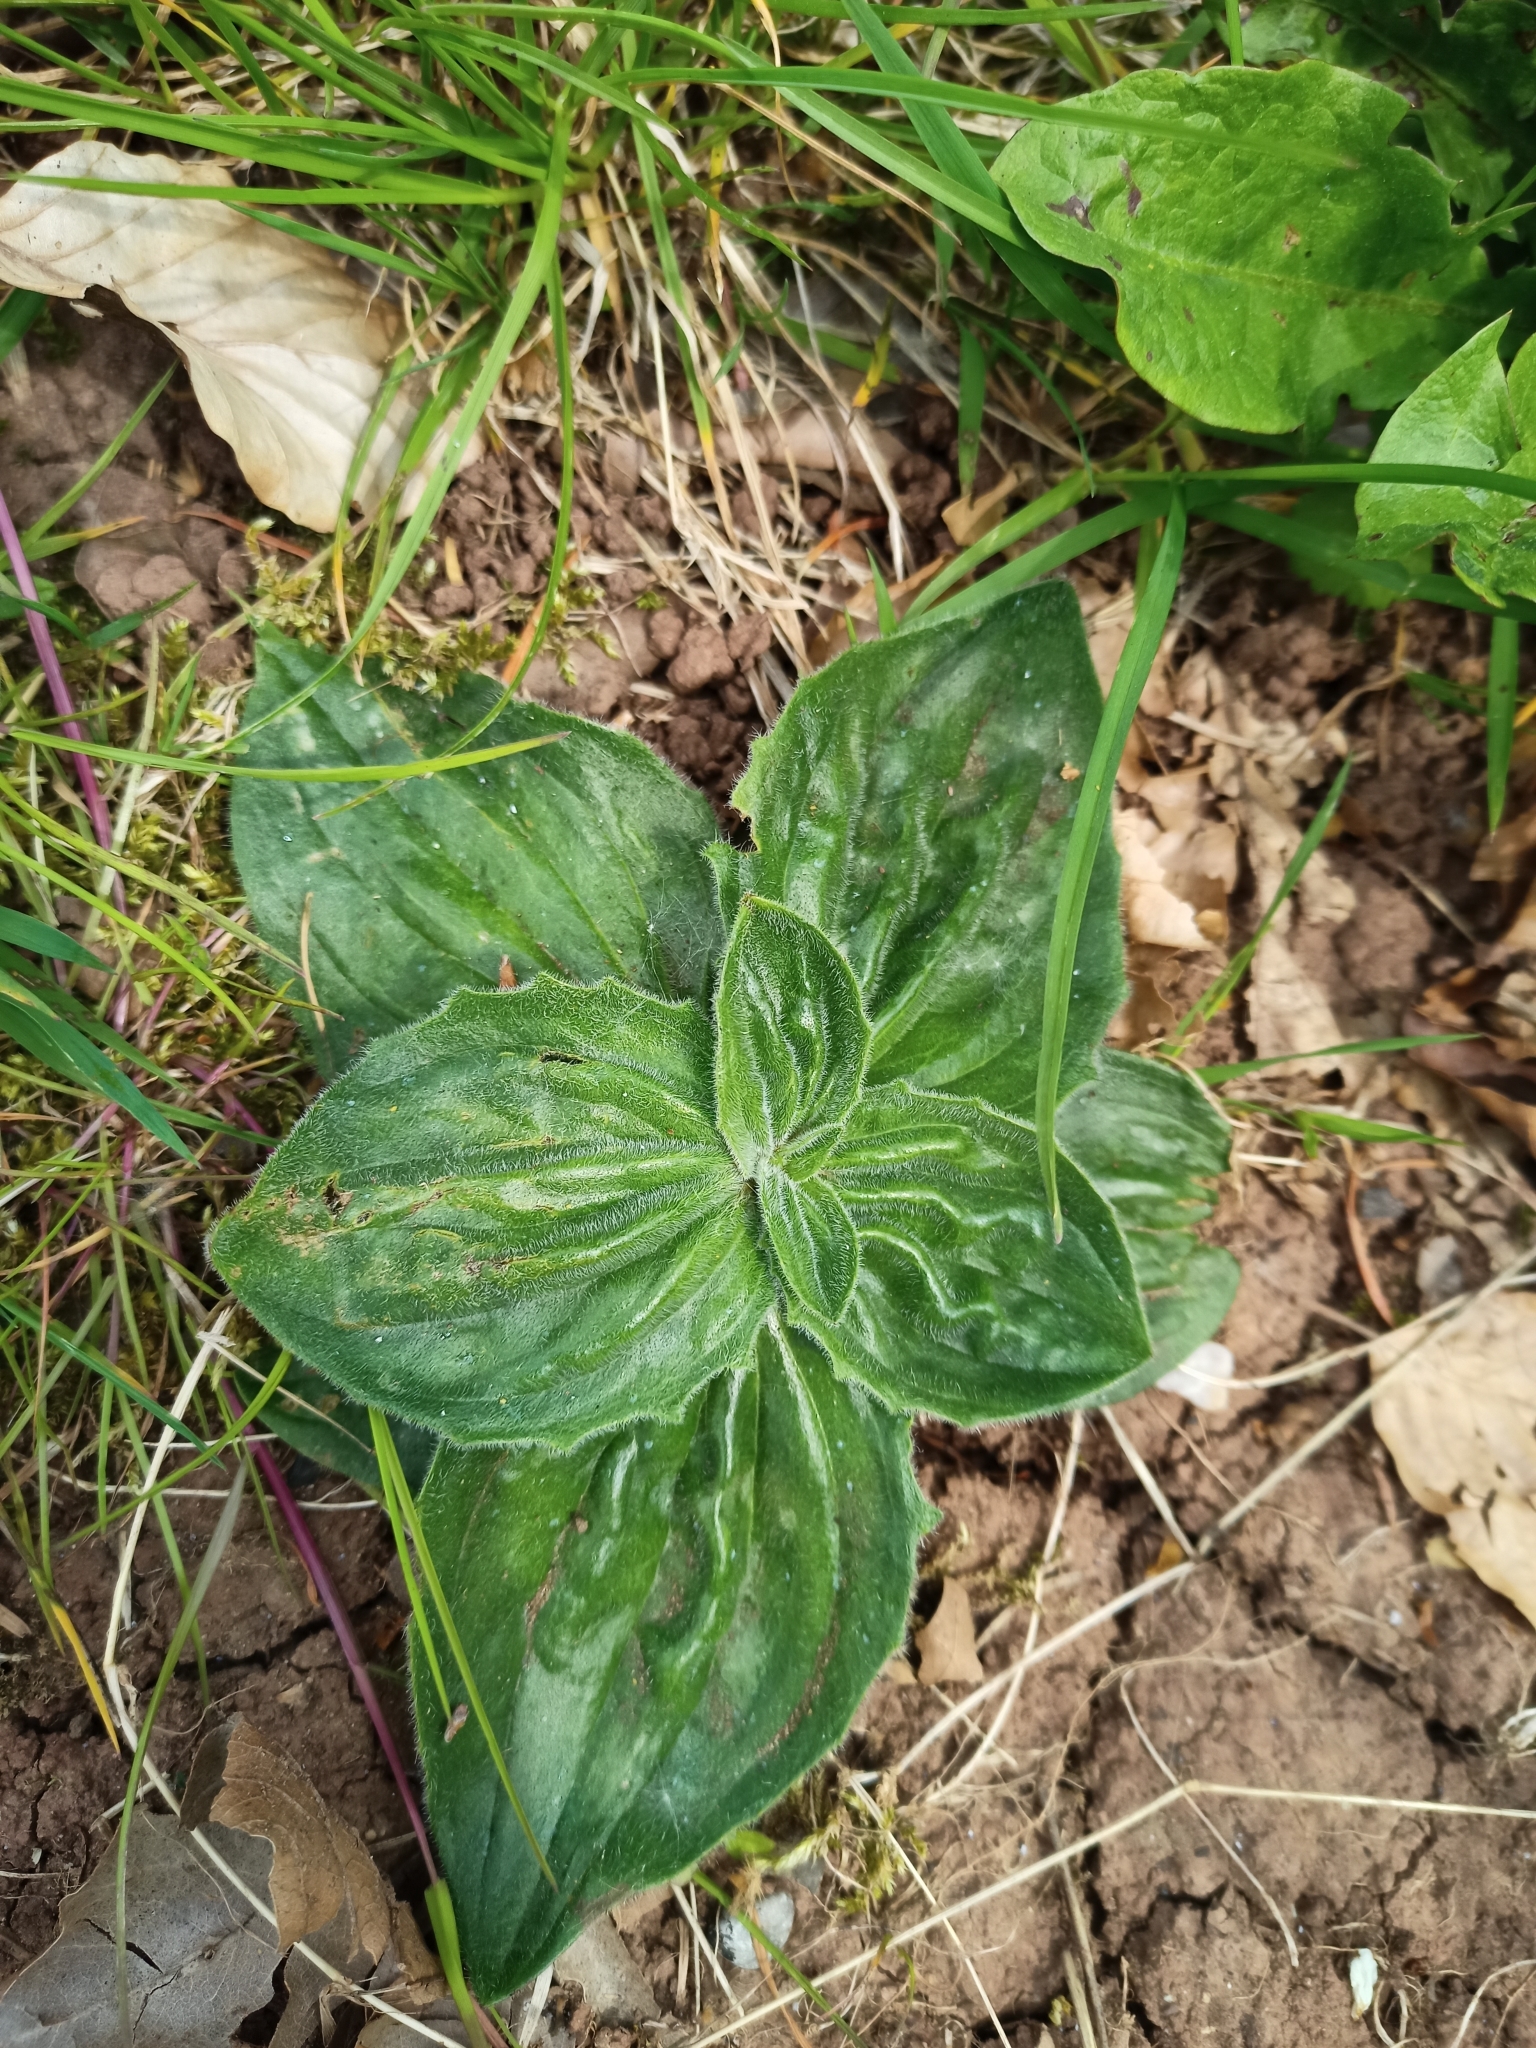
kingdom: Plantae
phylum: Tracheophyta
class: Magnoliopsida
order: Lamiales
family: Plantaginaceae
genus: Plantago
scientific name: Plantago media
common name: Hoary plantain
